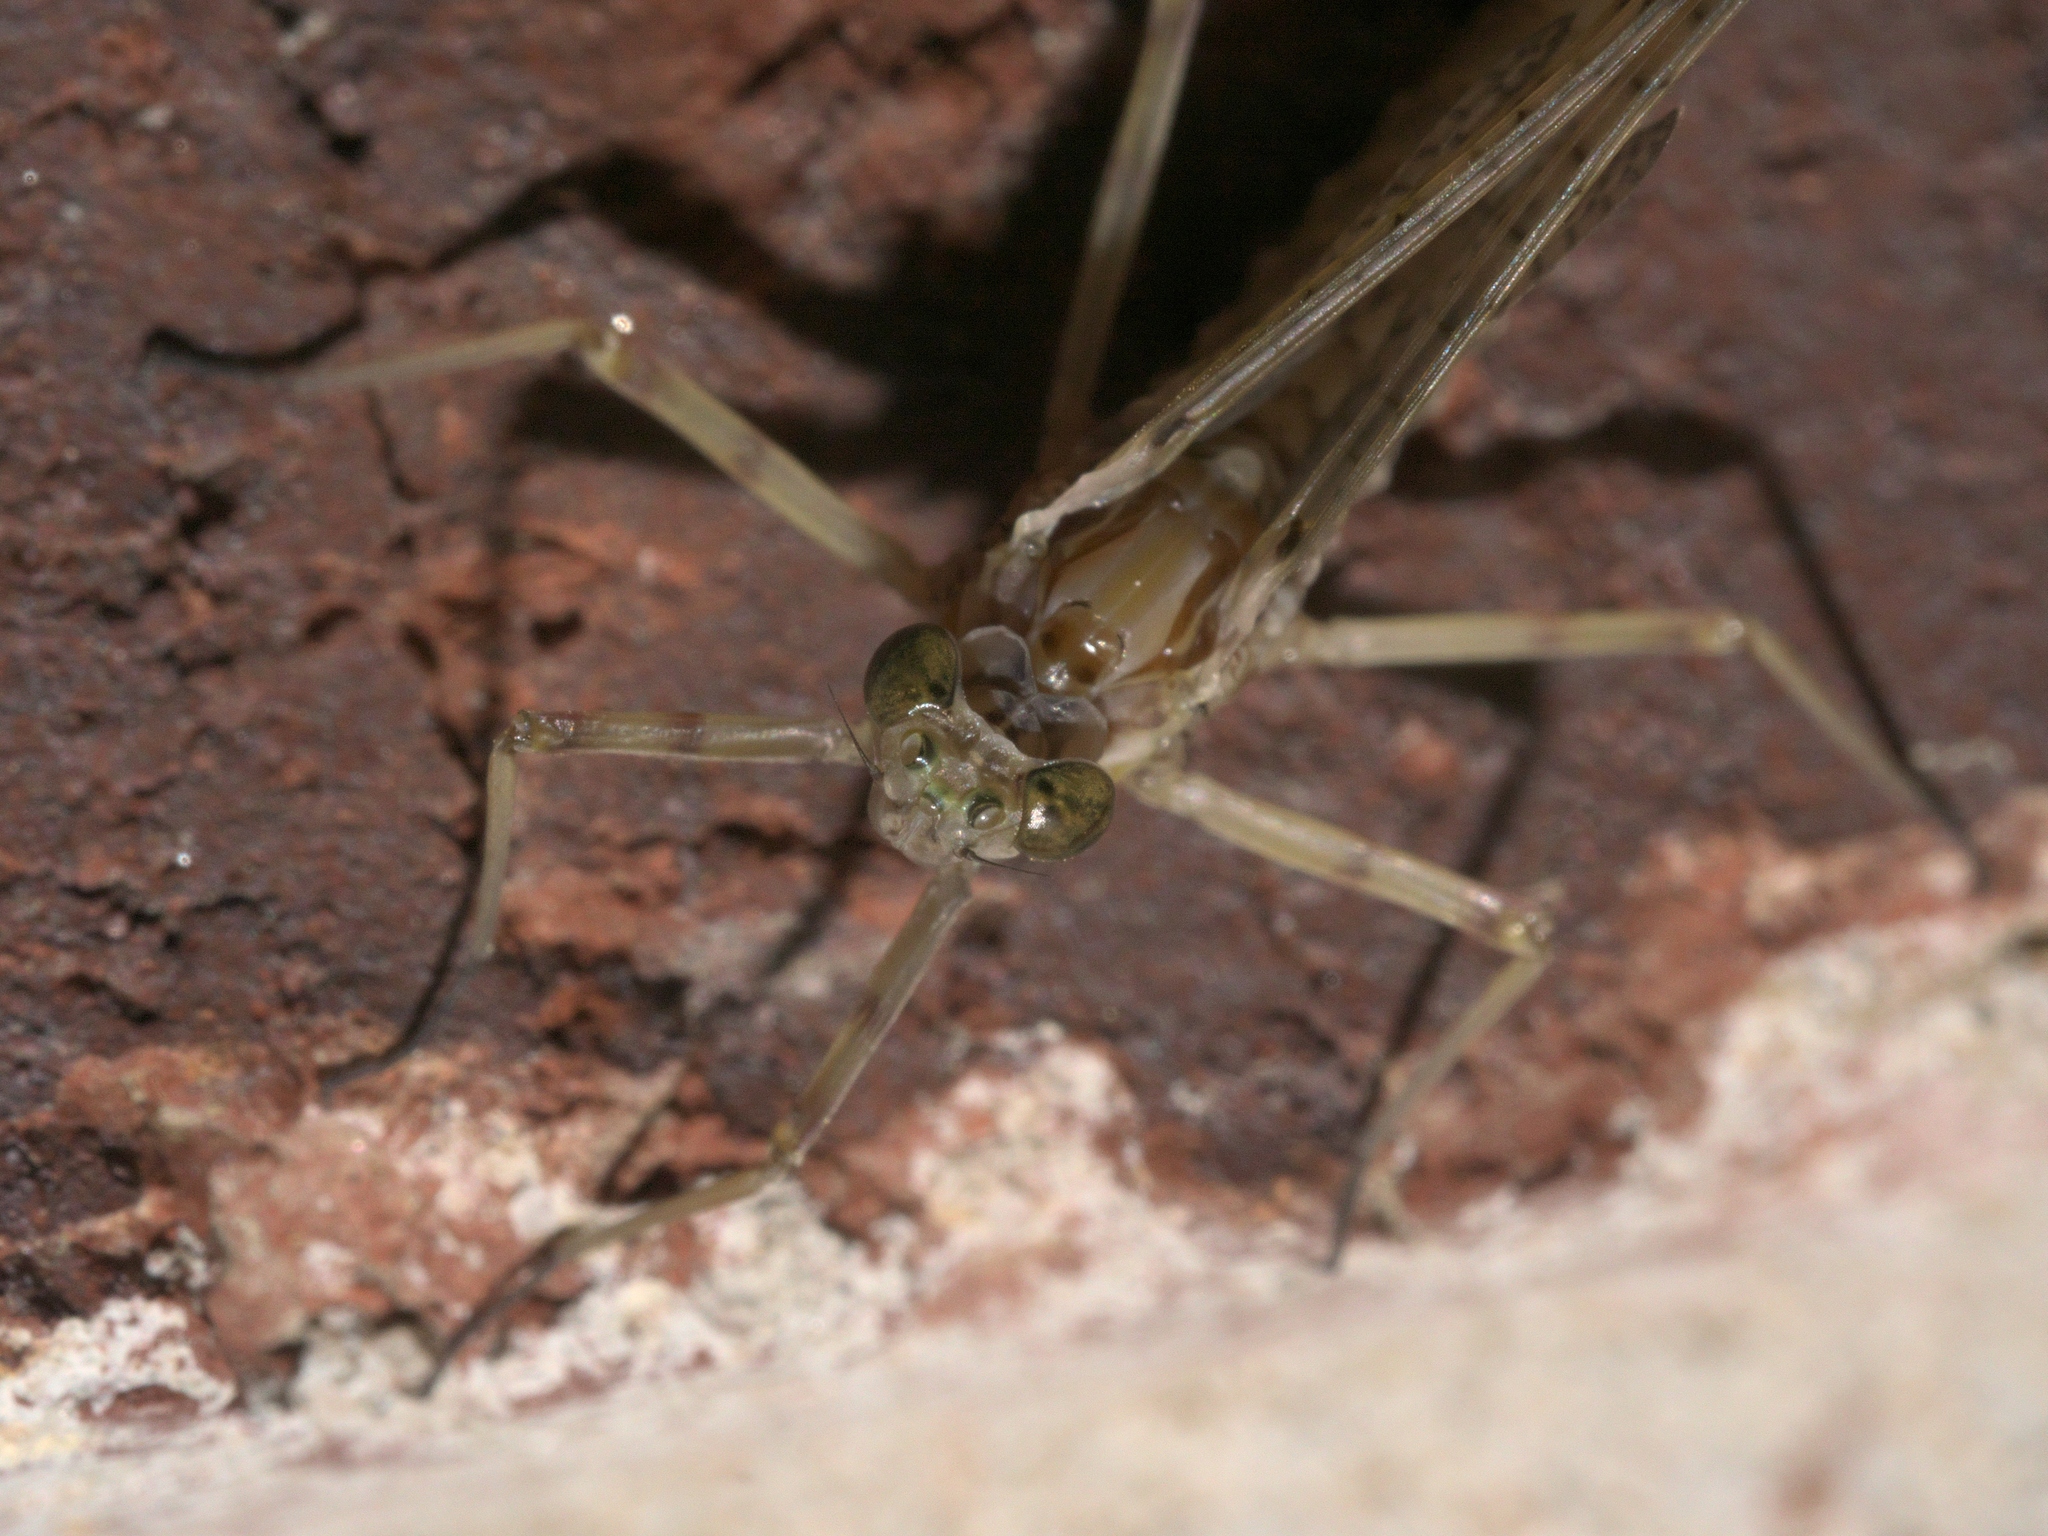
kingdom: Animalia
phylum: Arthropoda
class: Insecta
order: Ephemeroptera
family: Heptageniidae
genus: Stenonema
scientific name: Stenonema femoratum
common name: Dark cahill
